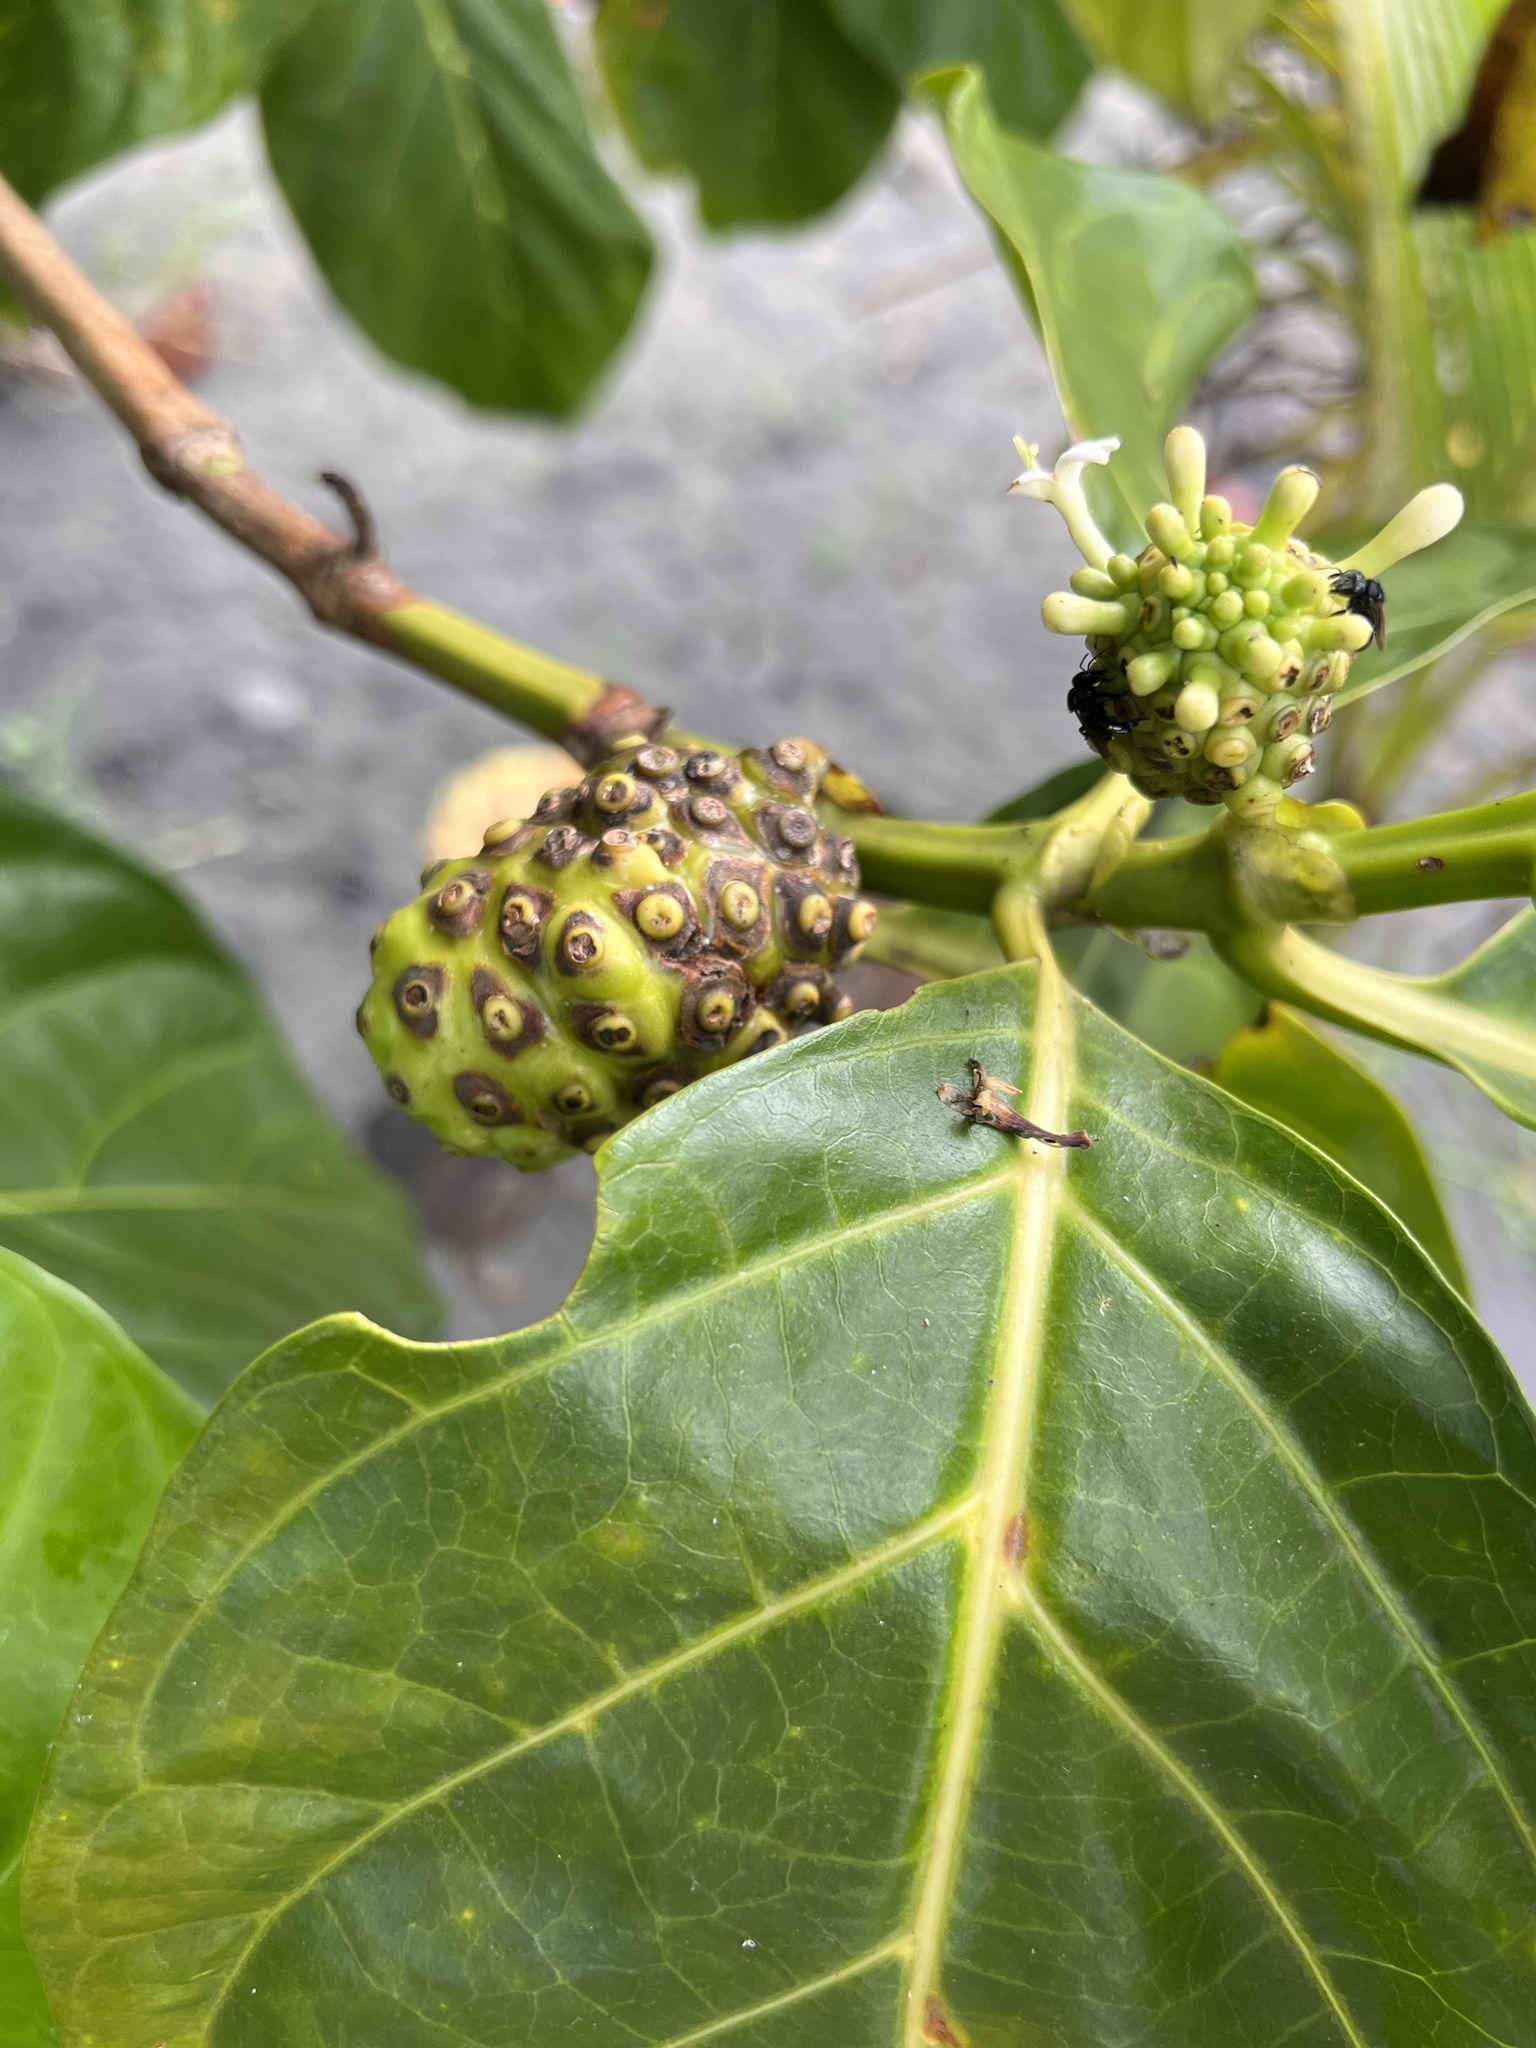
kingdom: Plantae
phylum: Tracheophyta
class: Magnoliopsida
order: Gentianales
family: Rubiaceae
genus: Morinda
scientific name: Morinda citrifolia
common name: Indian-mulberry
